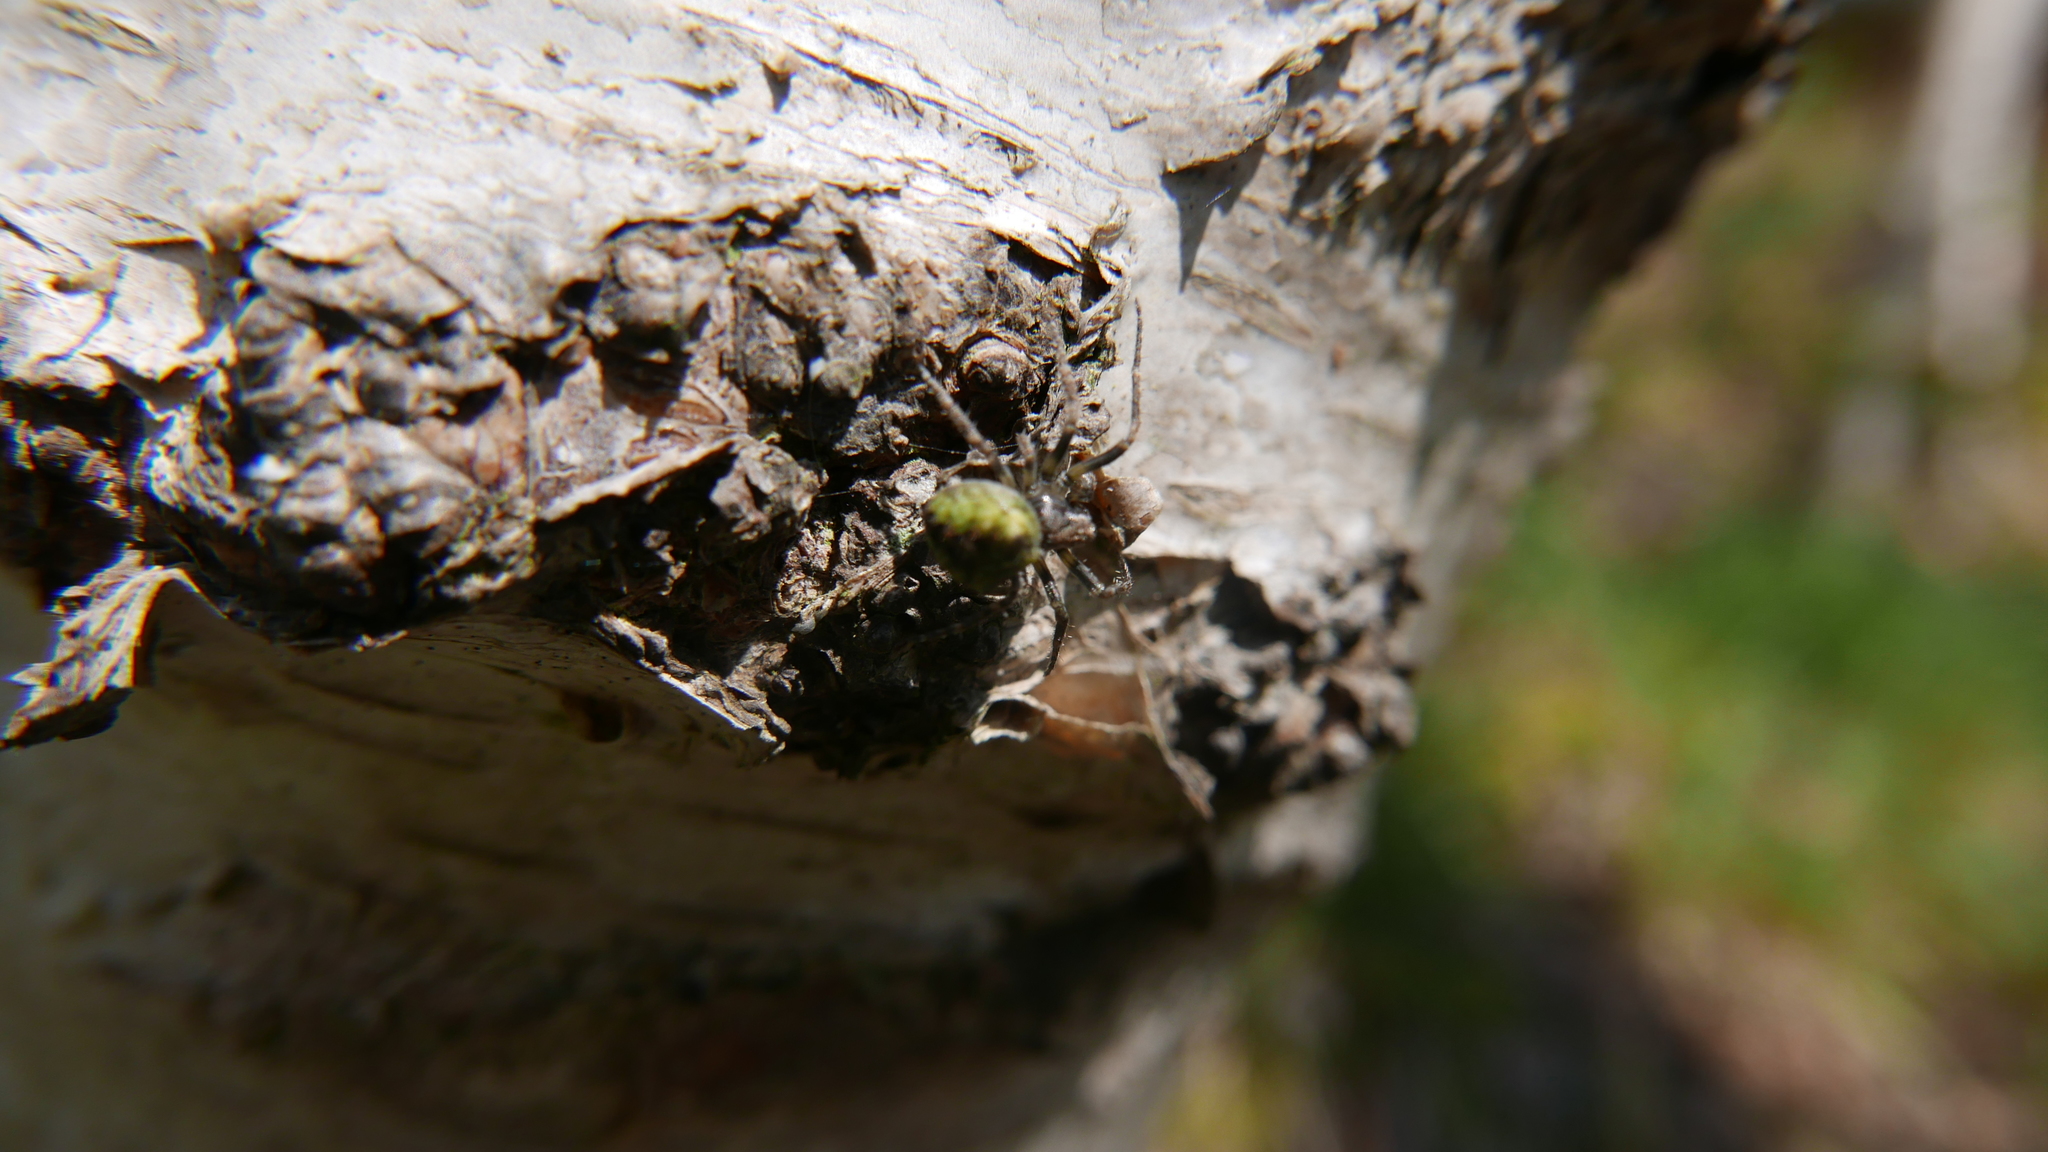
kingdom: Animalia
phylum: Arthropoda
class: Arachnida
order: Araneae
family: Araneidae
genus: Gibbaranea
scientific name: Gibbaranea gibbosa
